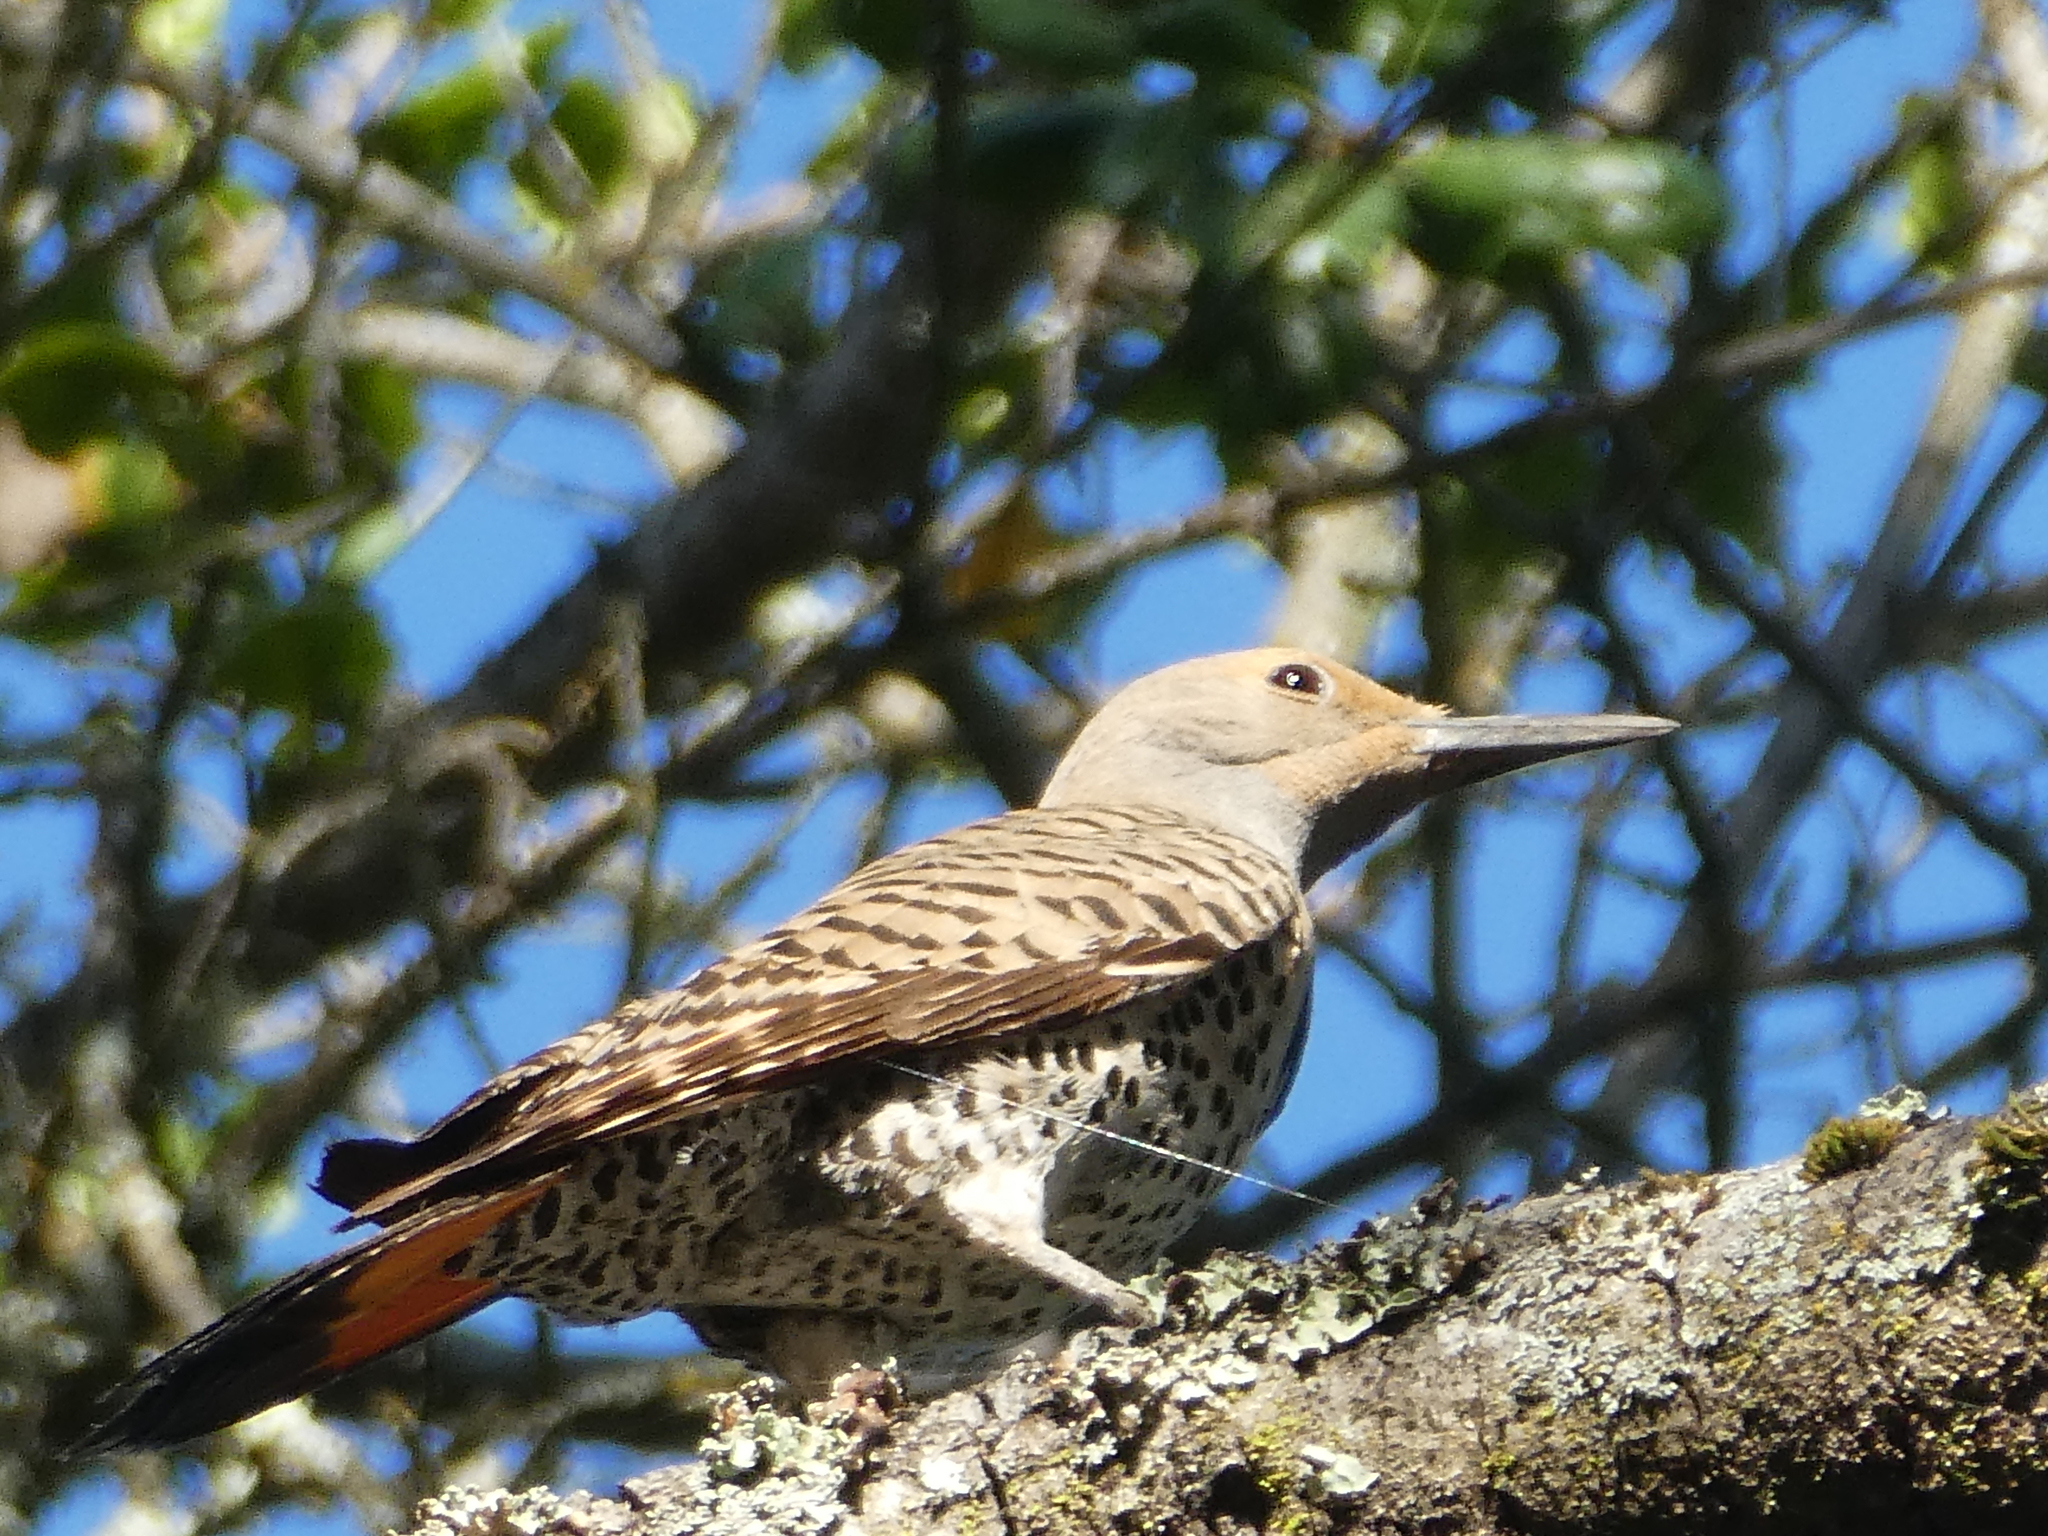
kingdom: Animalia
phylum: Chordata
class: Aves
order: Piciformes
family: Picidae
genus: Colaptes
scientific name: Colaptes auratus
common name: Northern flicker
